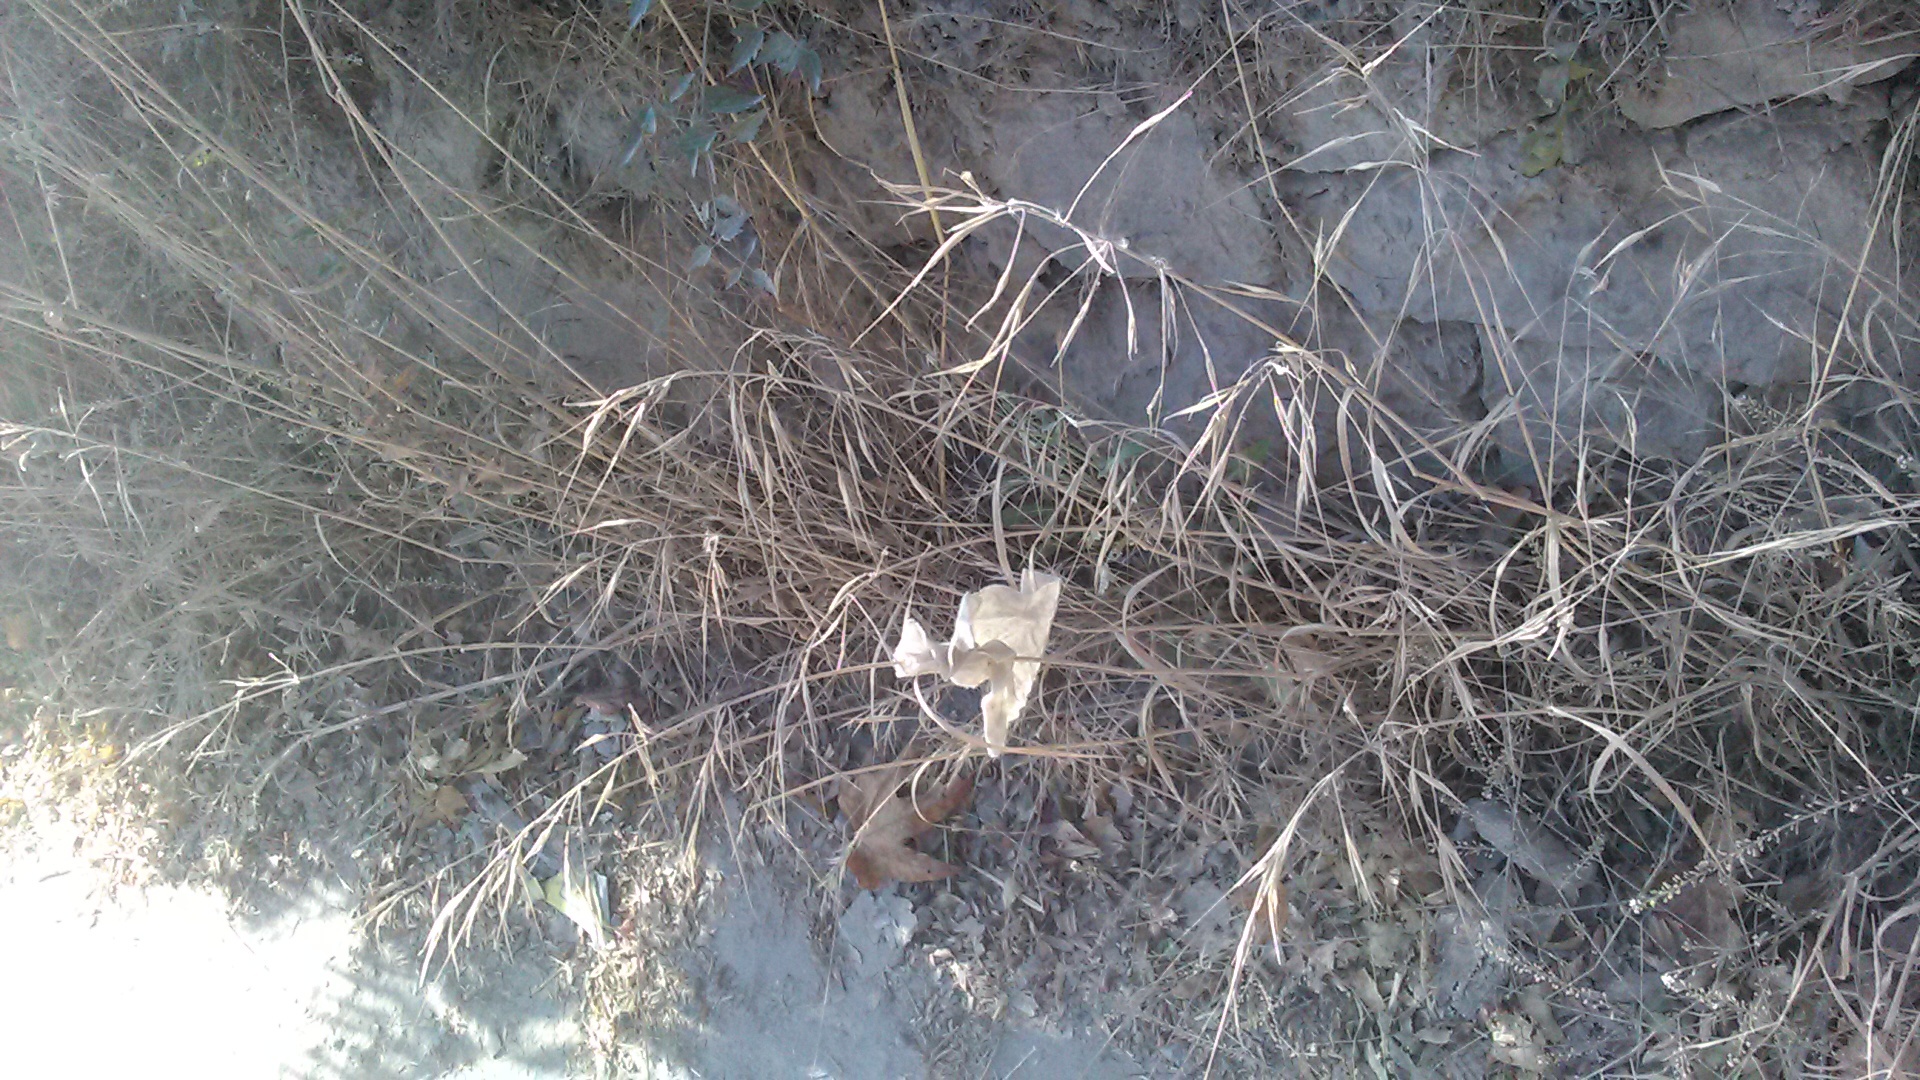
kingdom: Plantae
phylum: Tracheophyta
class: Liliopsida
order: Poales
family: Poaceae
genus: Bromus
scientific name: Bromus sterilis
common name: Poverty brome
